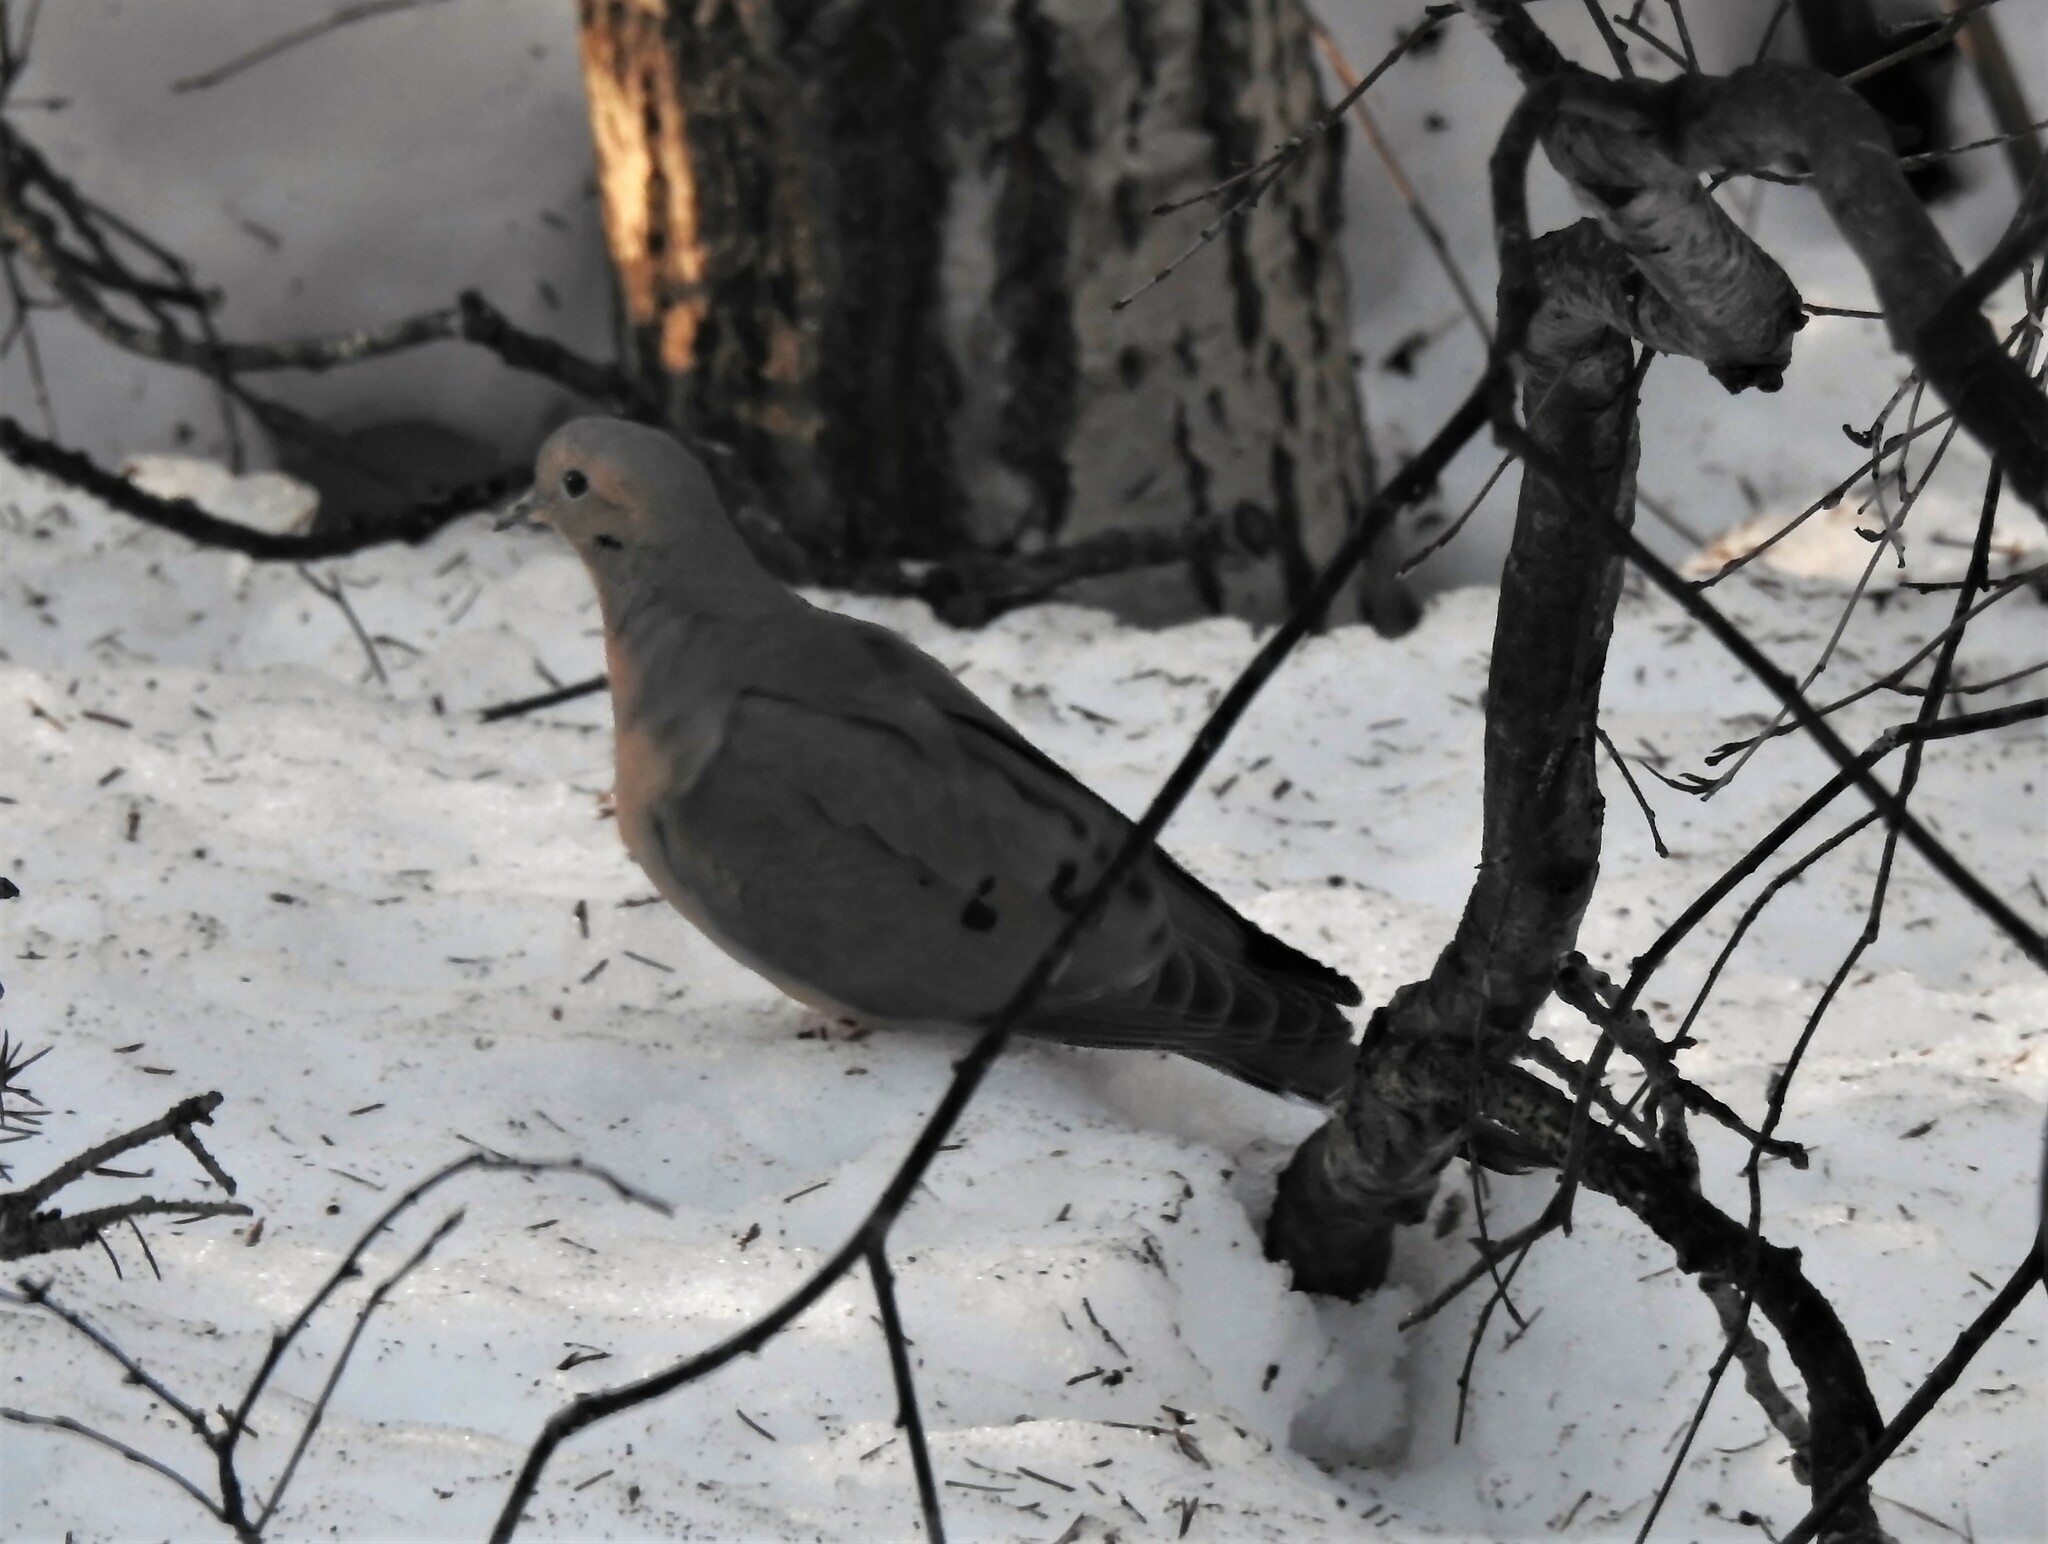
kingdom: Animalia
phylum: Chordata
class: Aves
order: Columbiformes
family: Columbidae
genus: Zenaida
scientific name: Zenaida macroura
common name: Mourning dove
